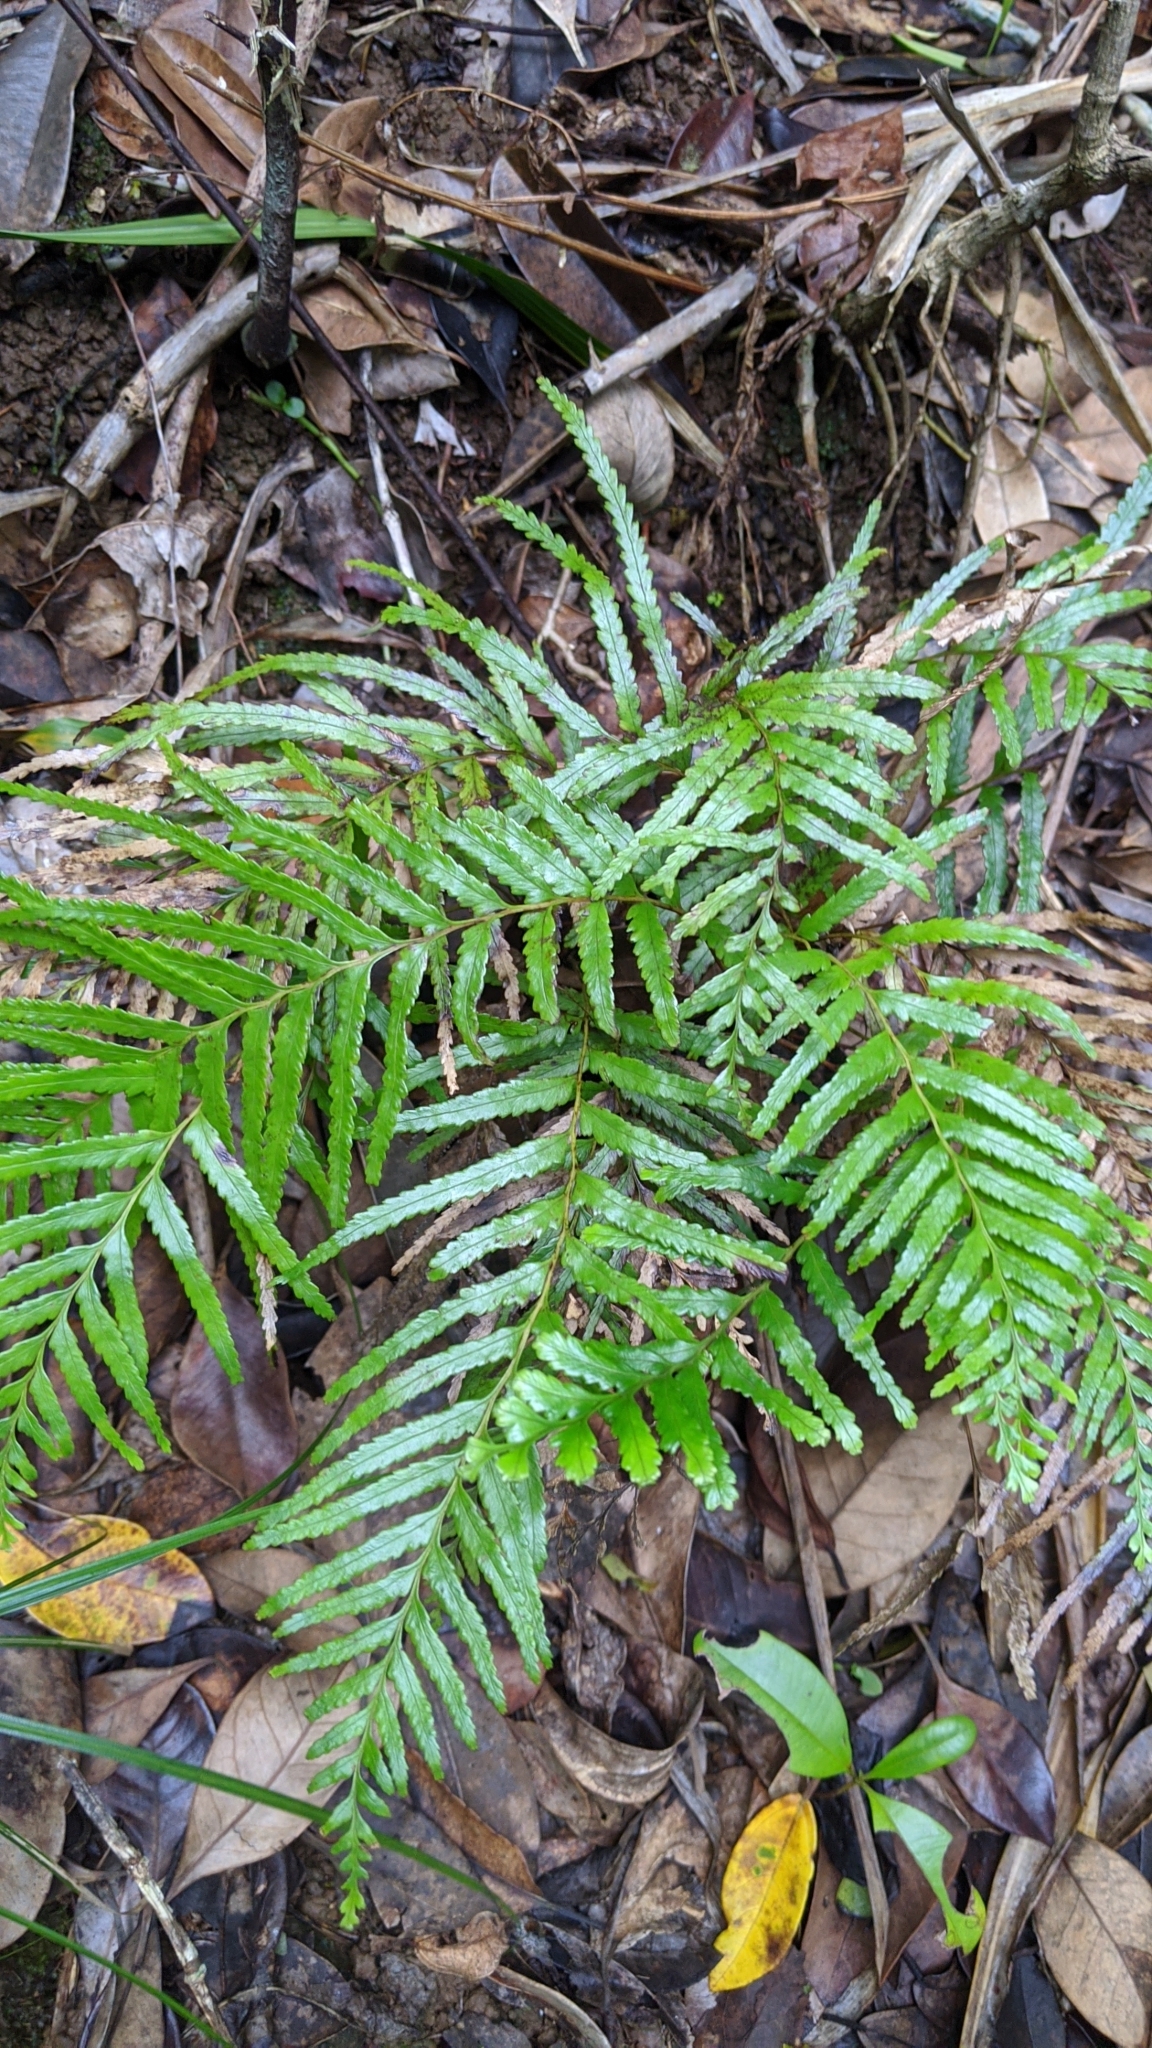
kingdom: Plantae
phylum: Tracheophyta
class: Polypodiopsida
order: Polypodiales
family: Lindsaeaceae
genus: Tapeinidium
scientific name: Tapeinidium pinnatum
